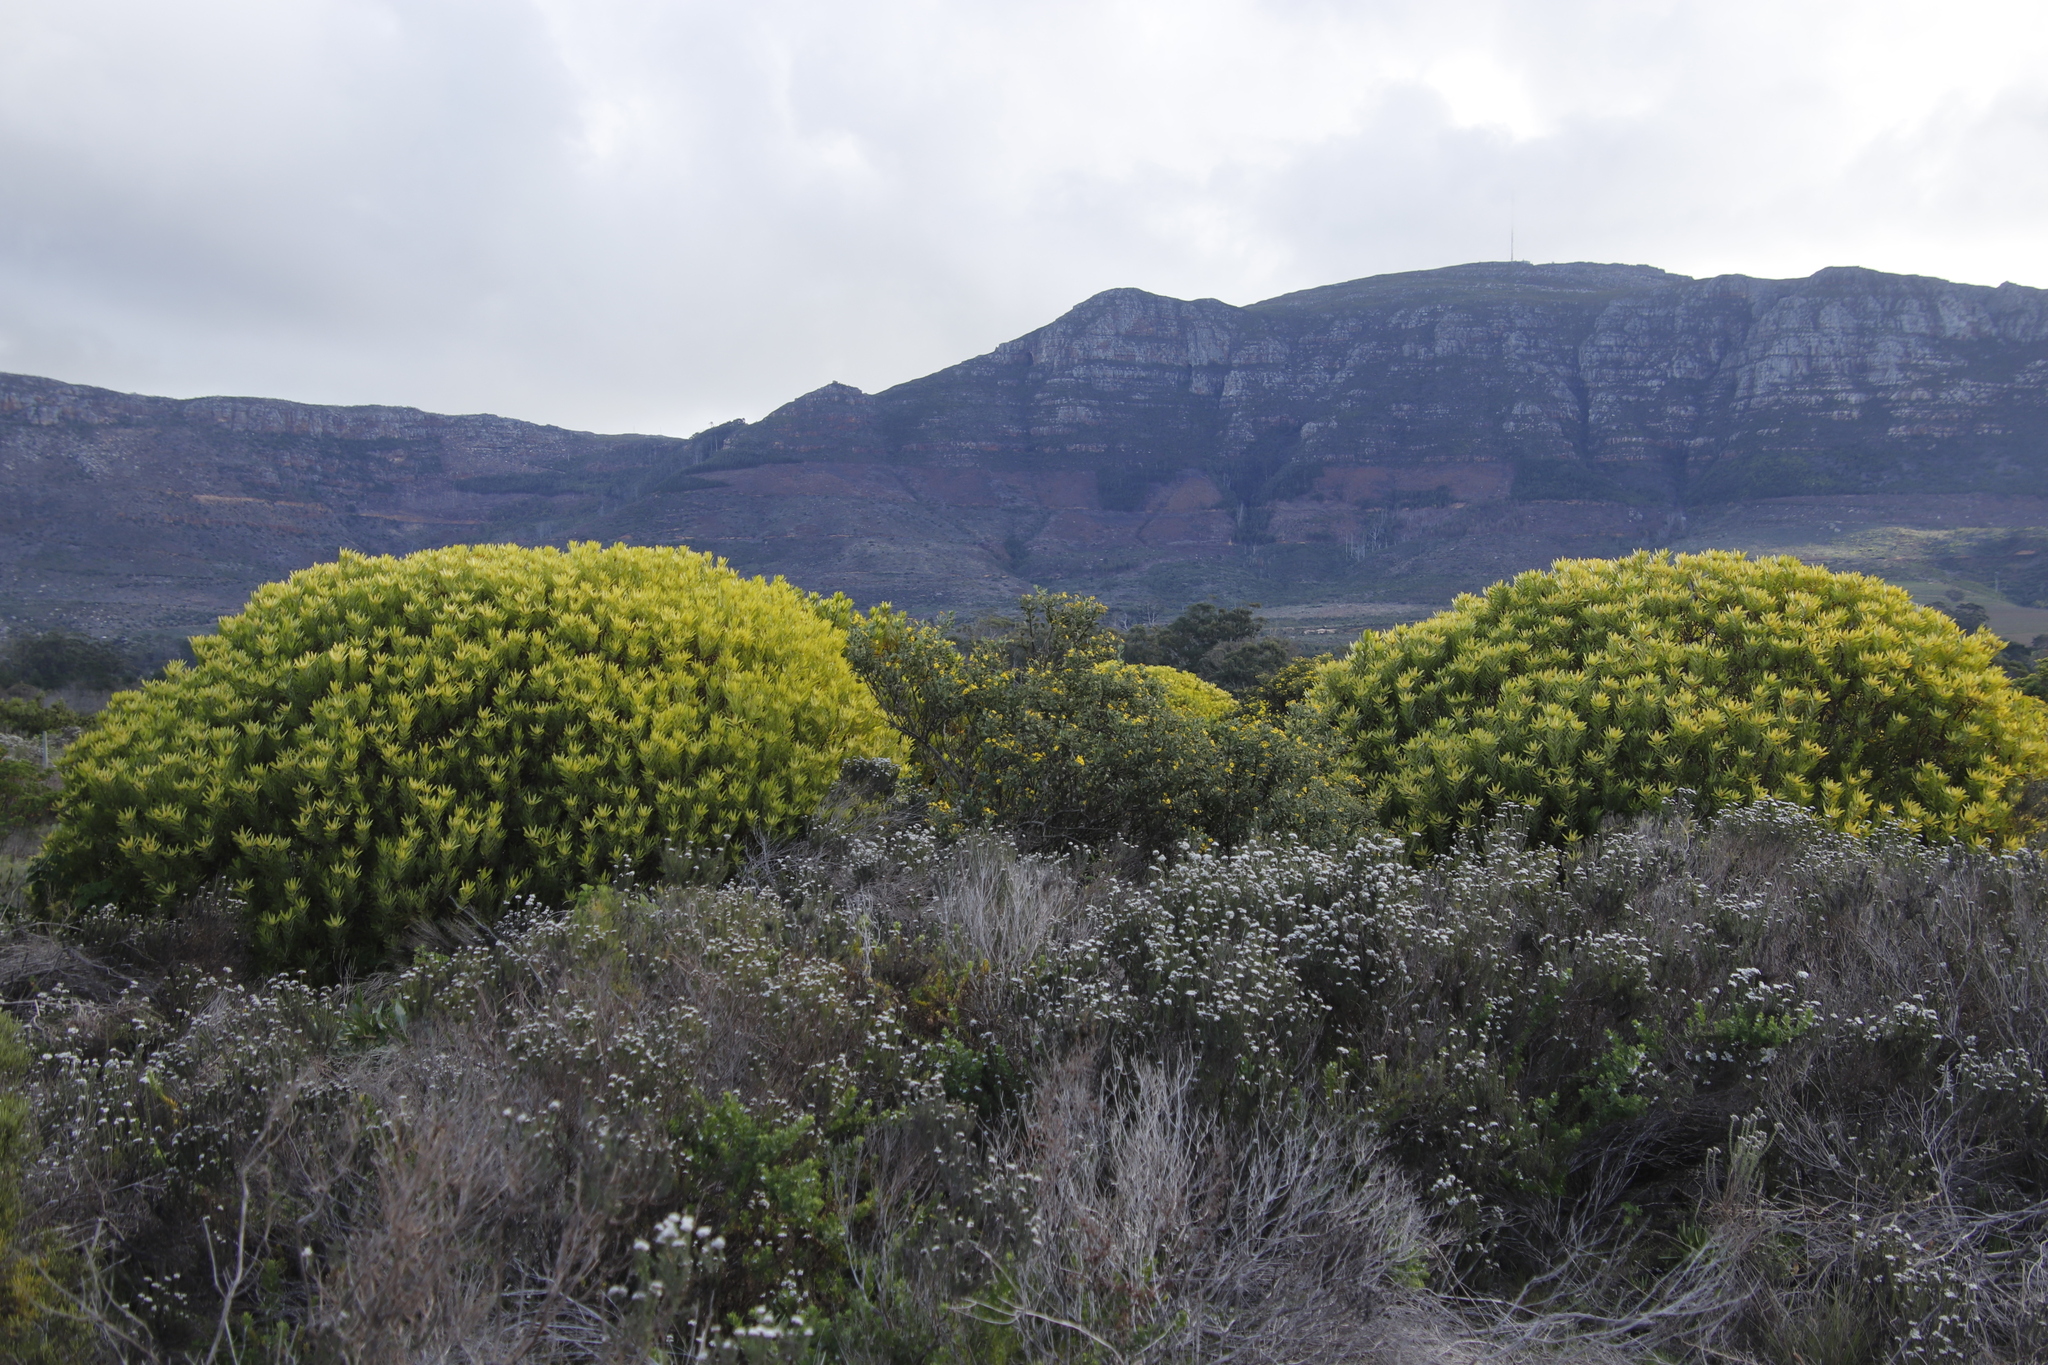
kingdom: Plantae
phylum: Tracheophyta
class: Magnoliopsida
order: Asterales
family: Asteraceae
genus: Metalasia
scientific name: Metalasia densa
